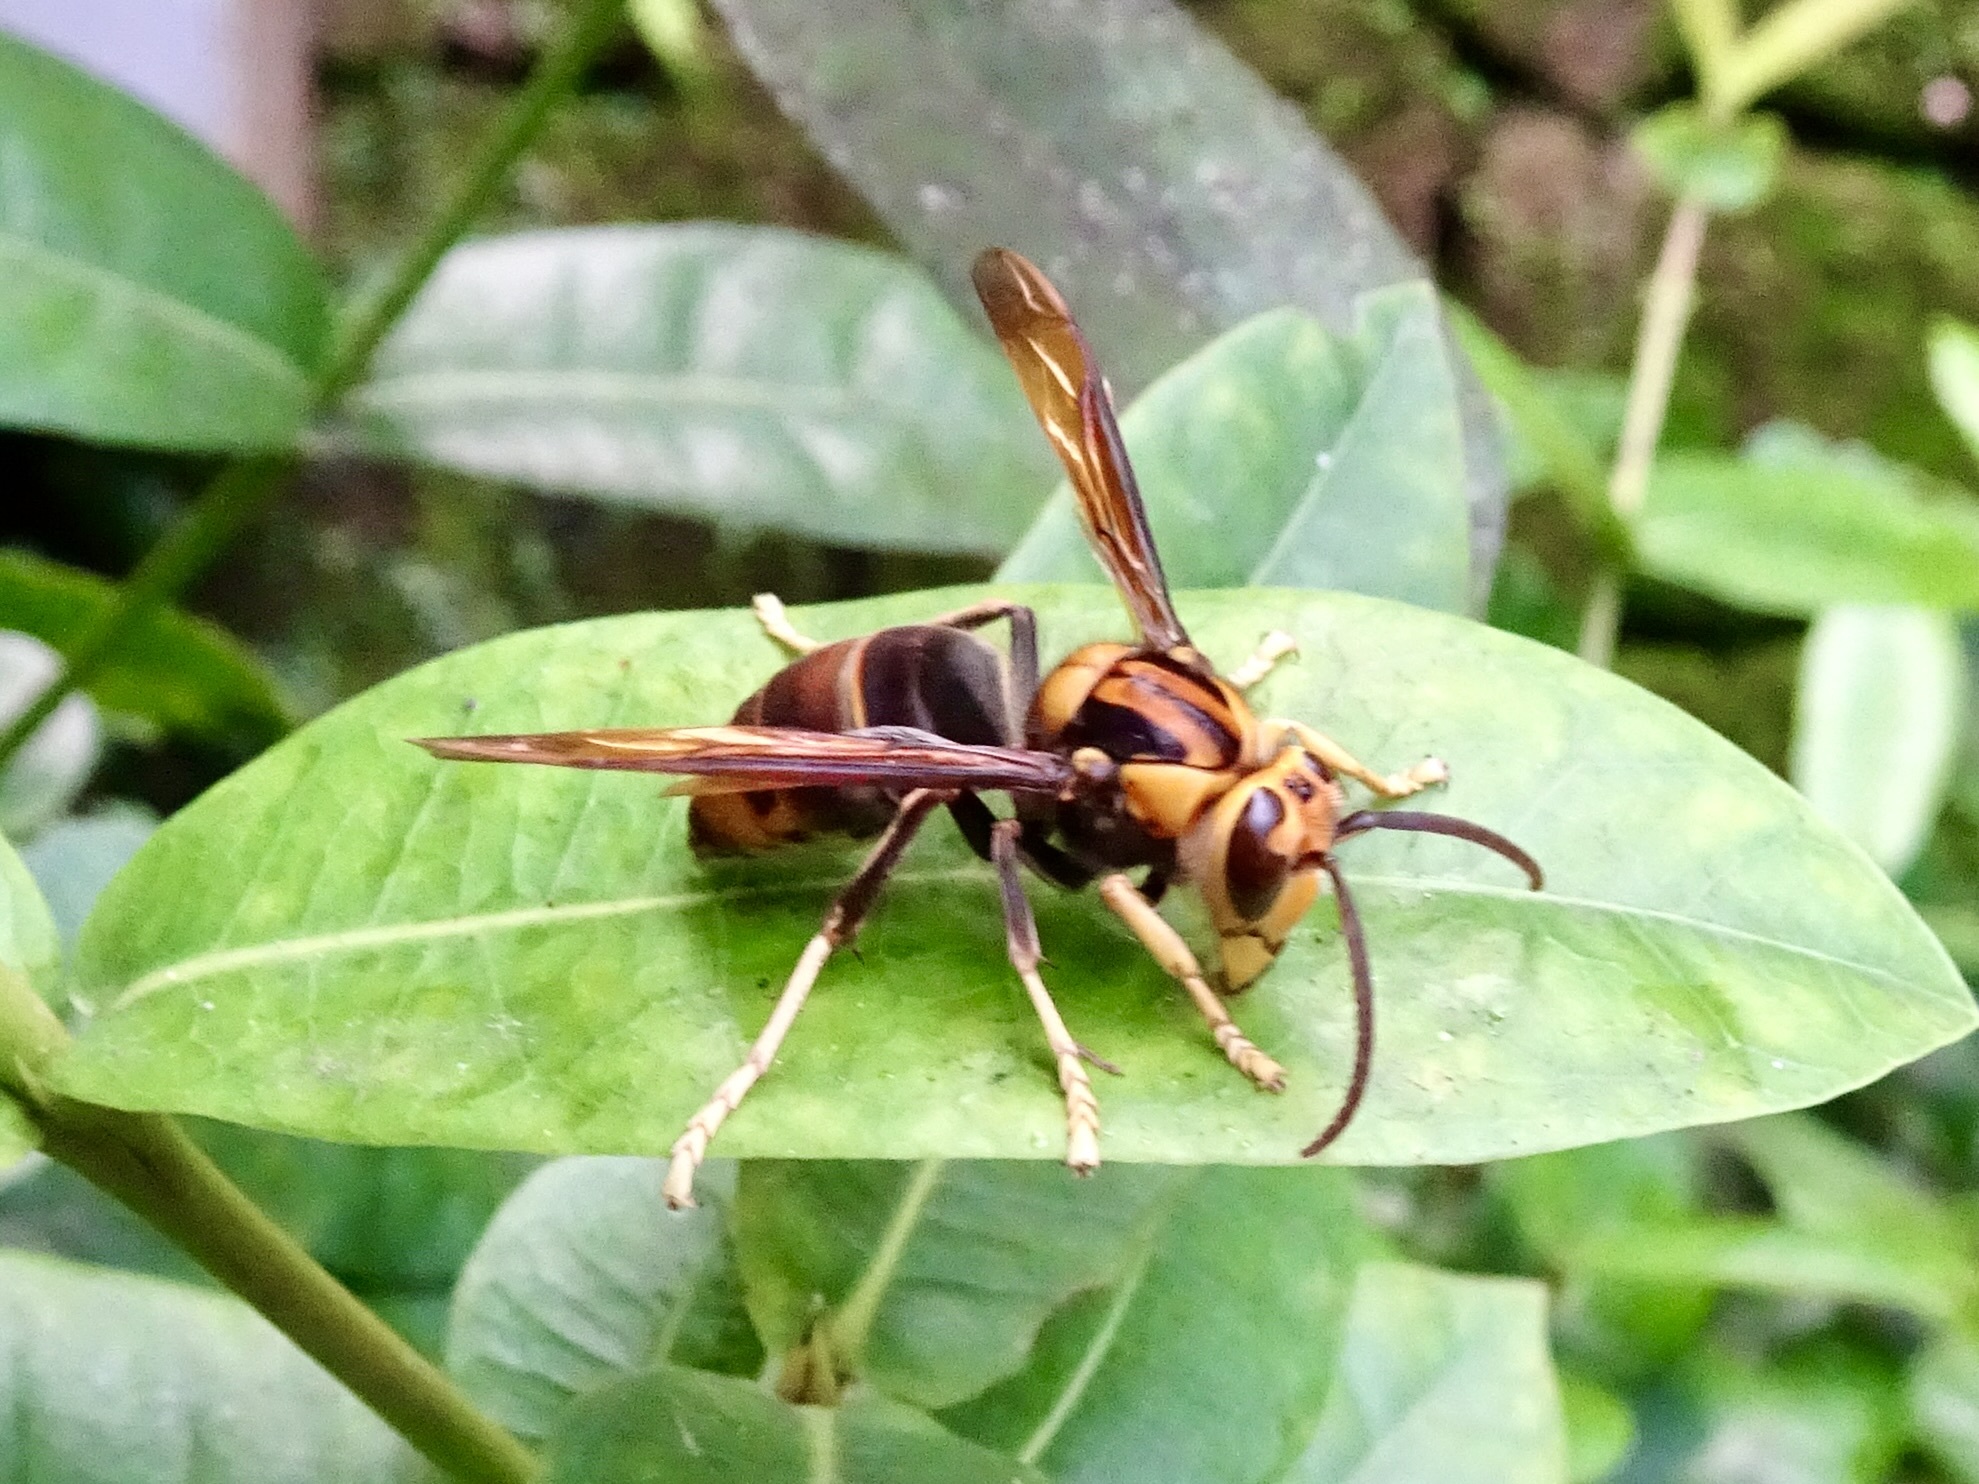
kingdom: Animalia
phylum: Arthropoda
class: Insecta
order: Hymenoptera
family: Vespidae
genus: Vespa
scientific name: Vespa velutina
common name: Asian hornet
